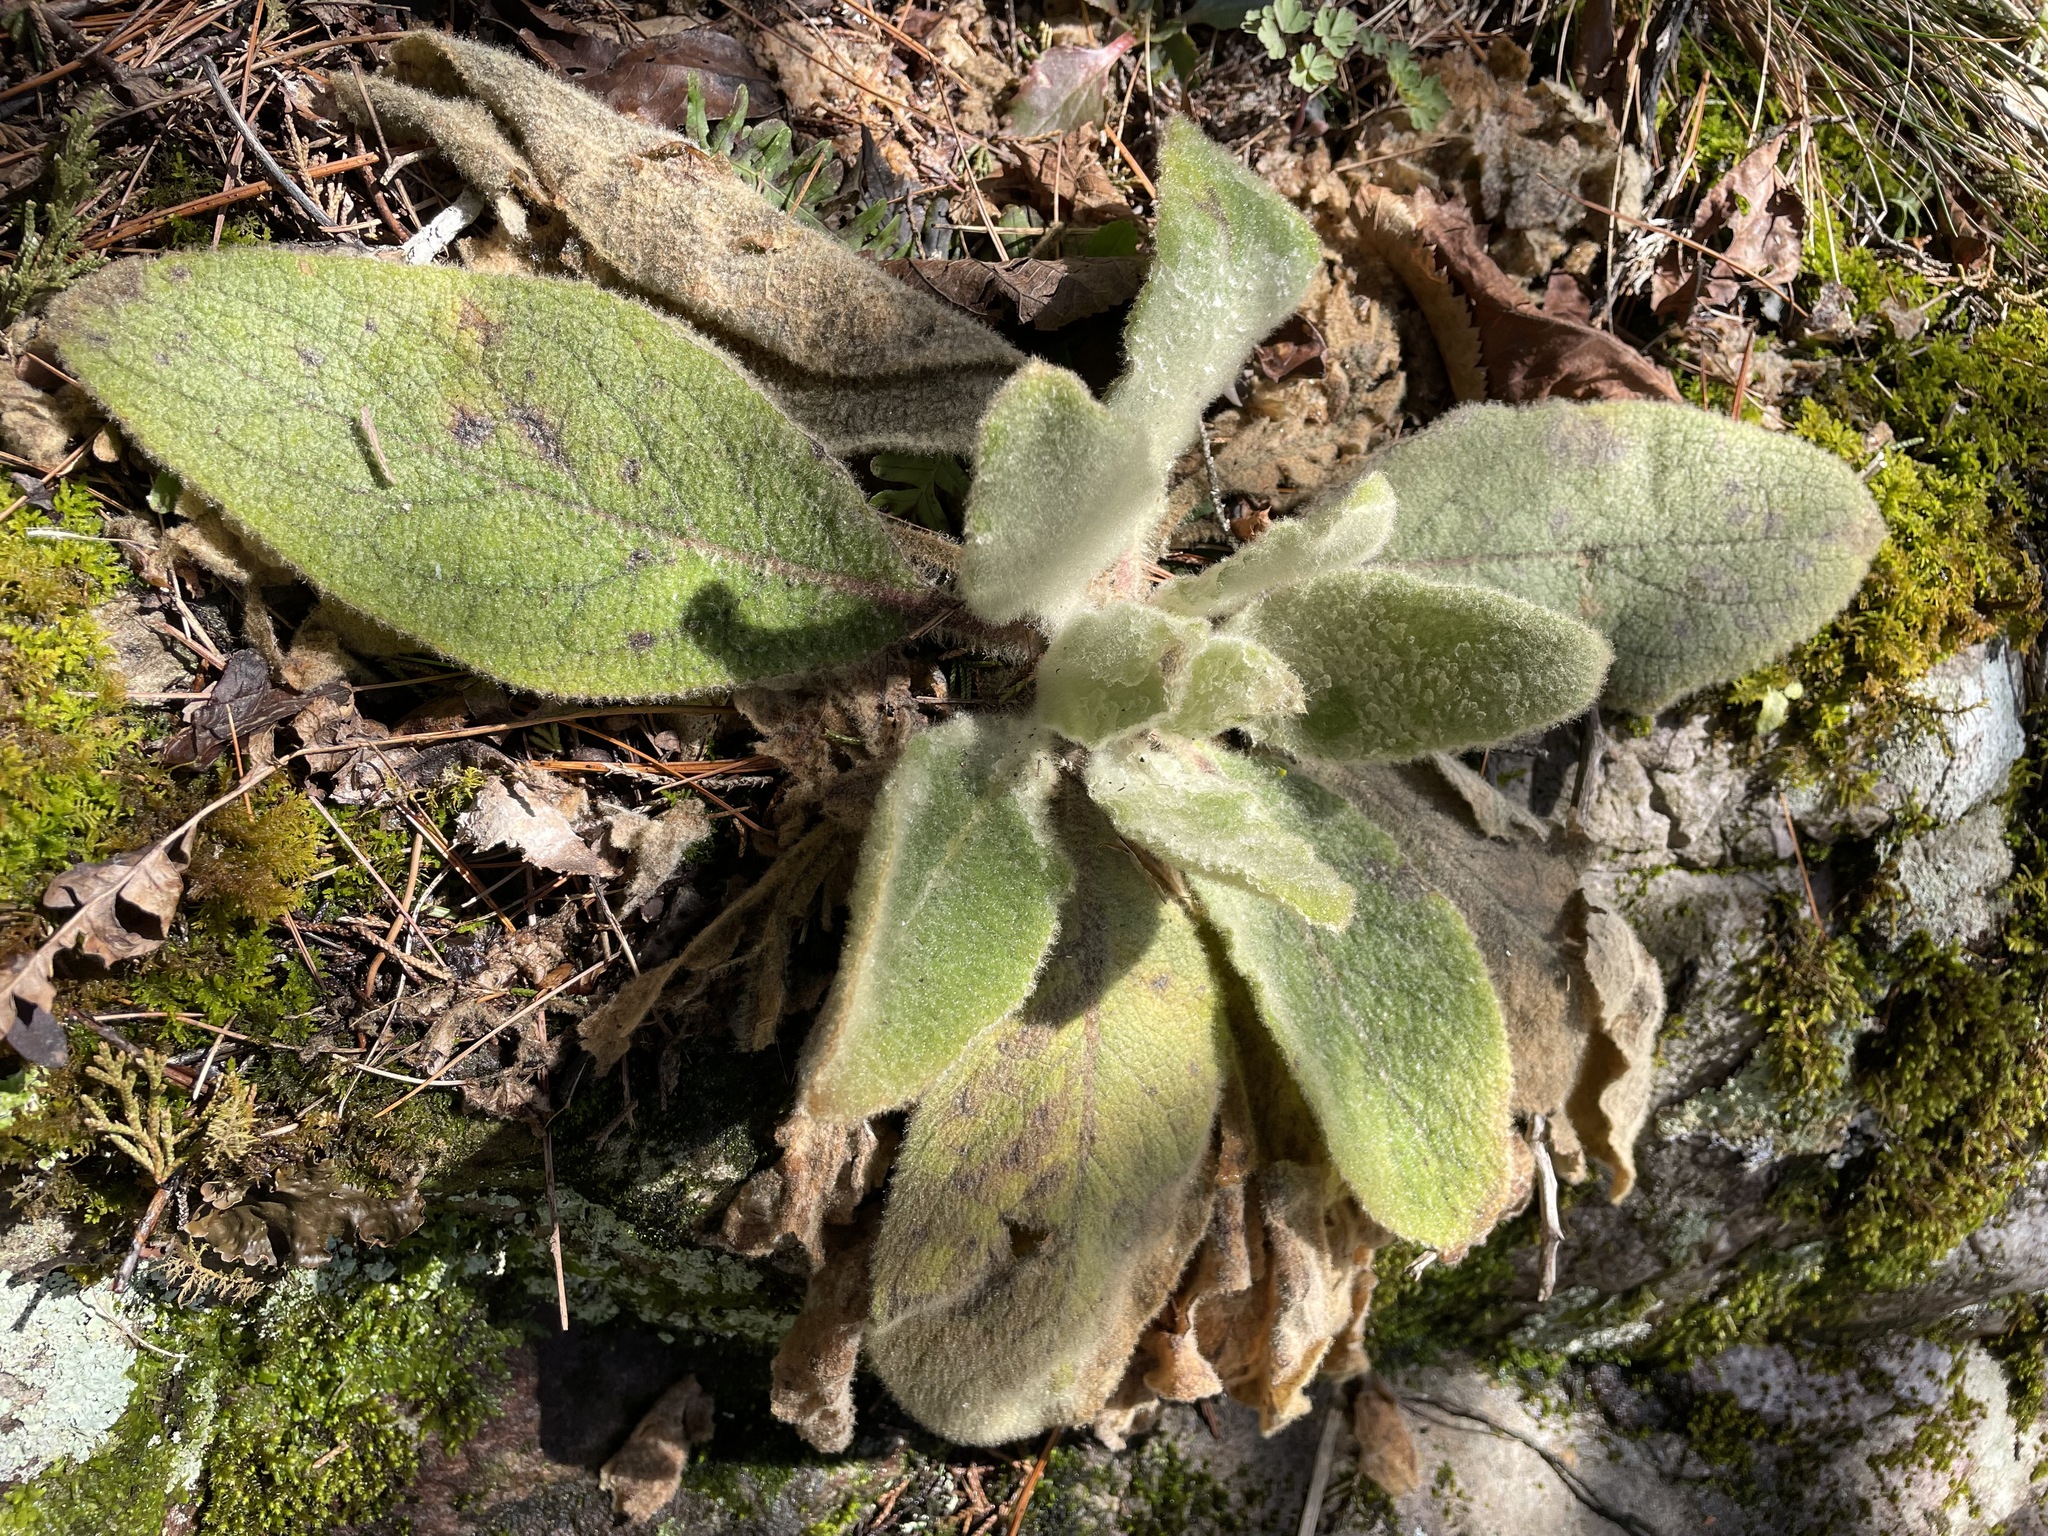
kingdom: Plantae
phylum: Tracheophyta
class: Magnoliopsida
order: Lamiales
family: Scrophulariaceae
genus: Verbascum
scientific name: Verbascum thapsus
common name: Common mullein
